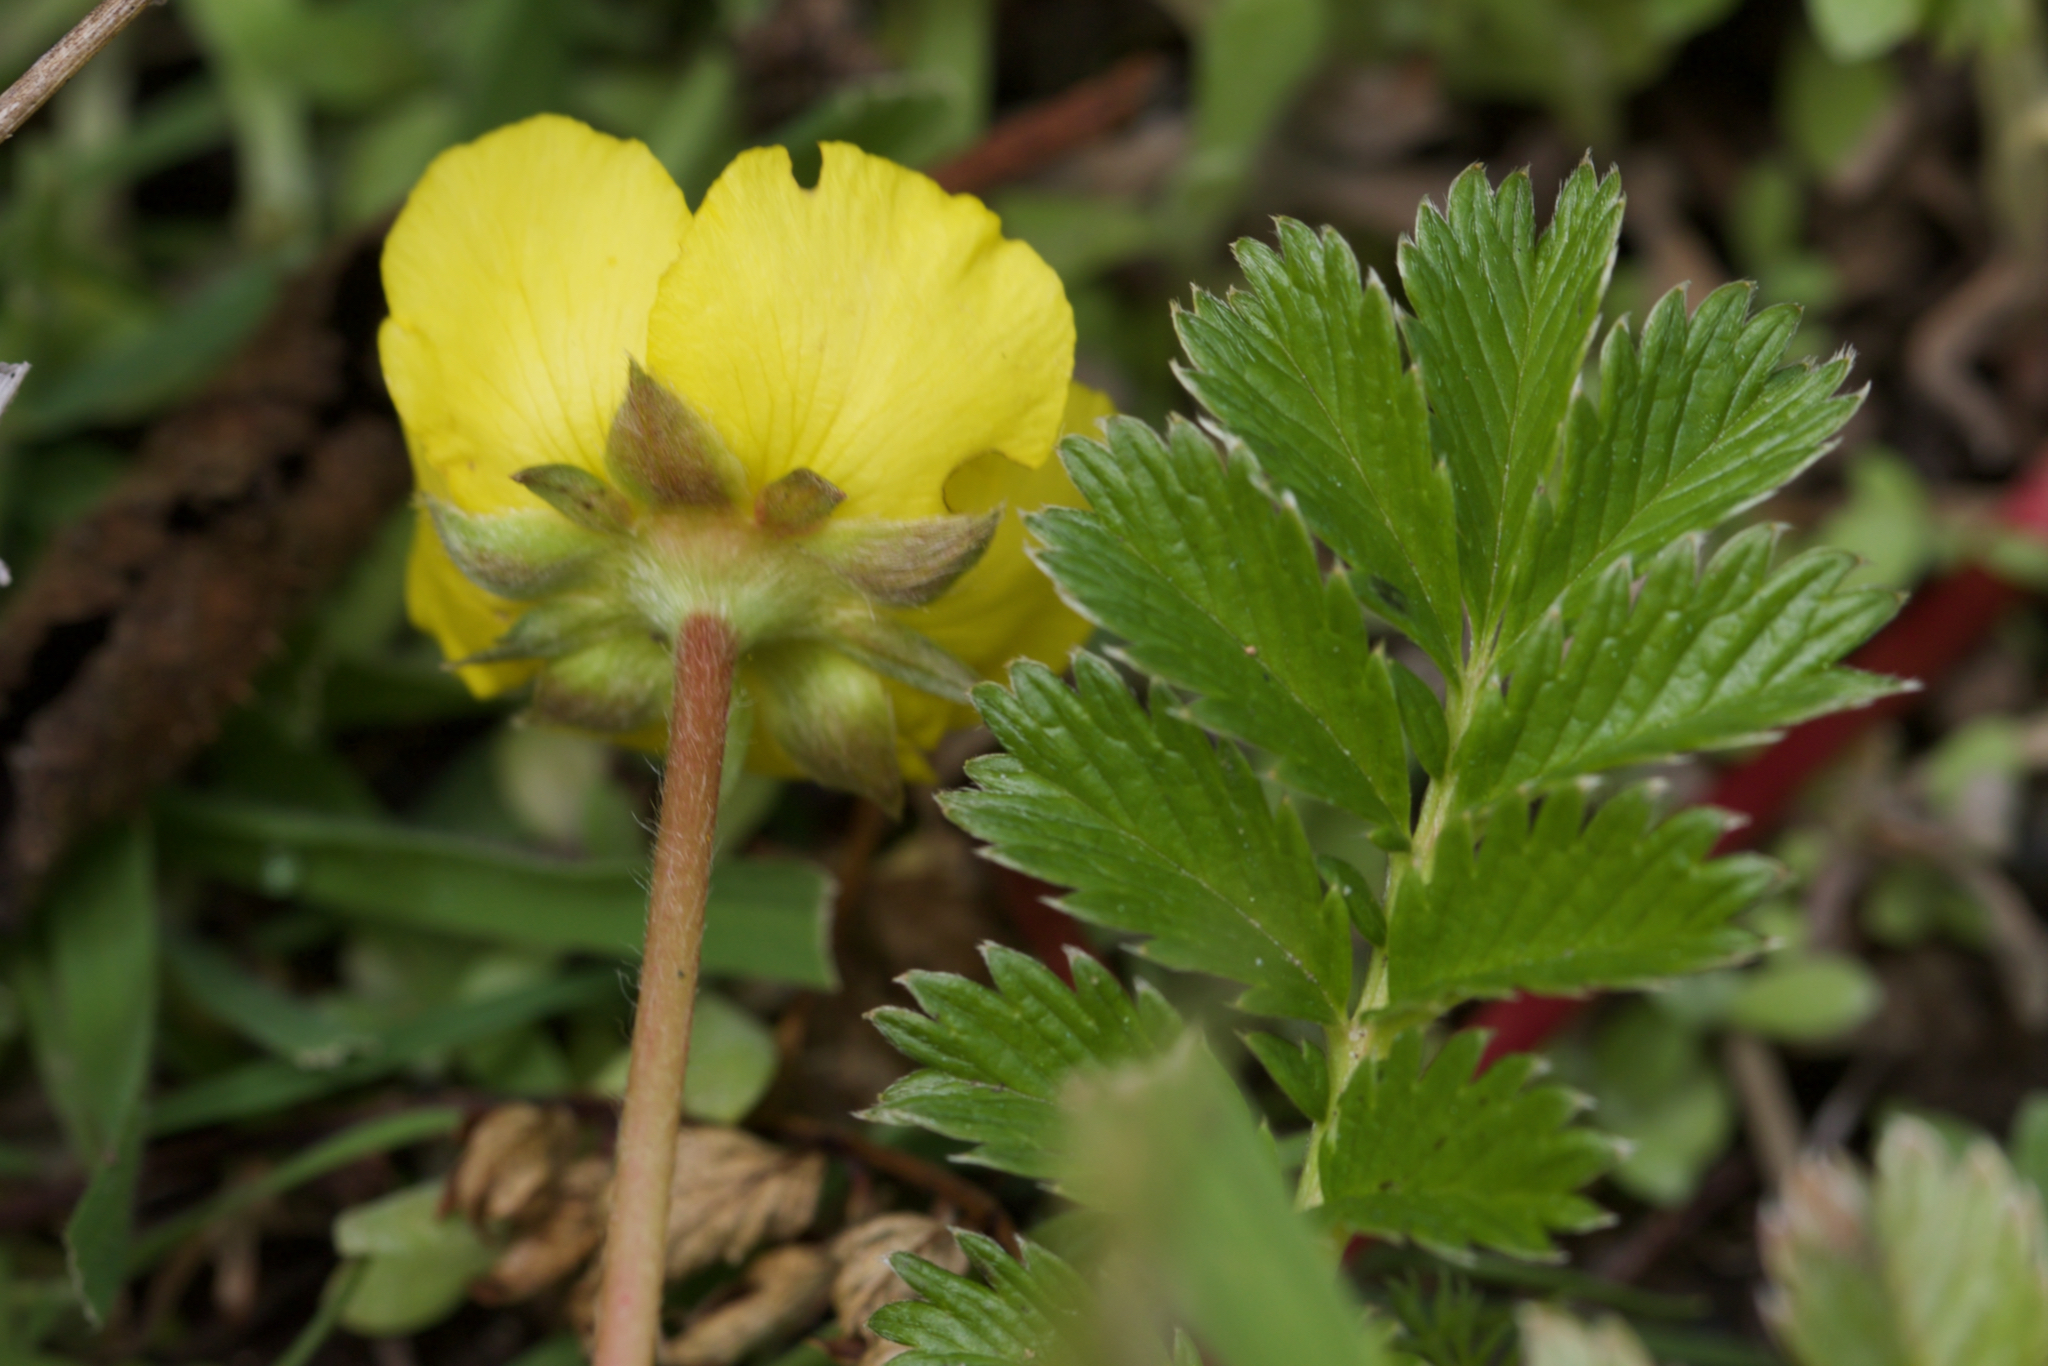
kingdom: Plantae
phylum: Tracheophyta
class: Magnoliopsida
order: Rosales
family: Rosaceae
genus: Argentina
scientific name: Argentina anserina
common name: Common silverweed
